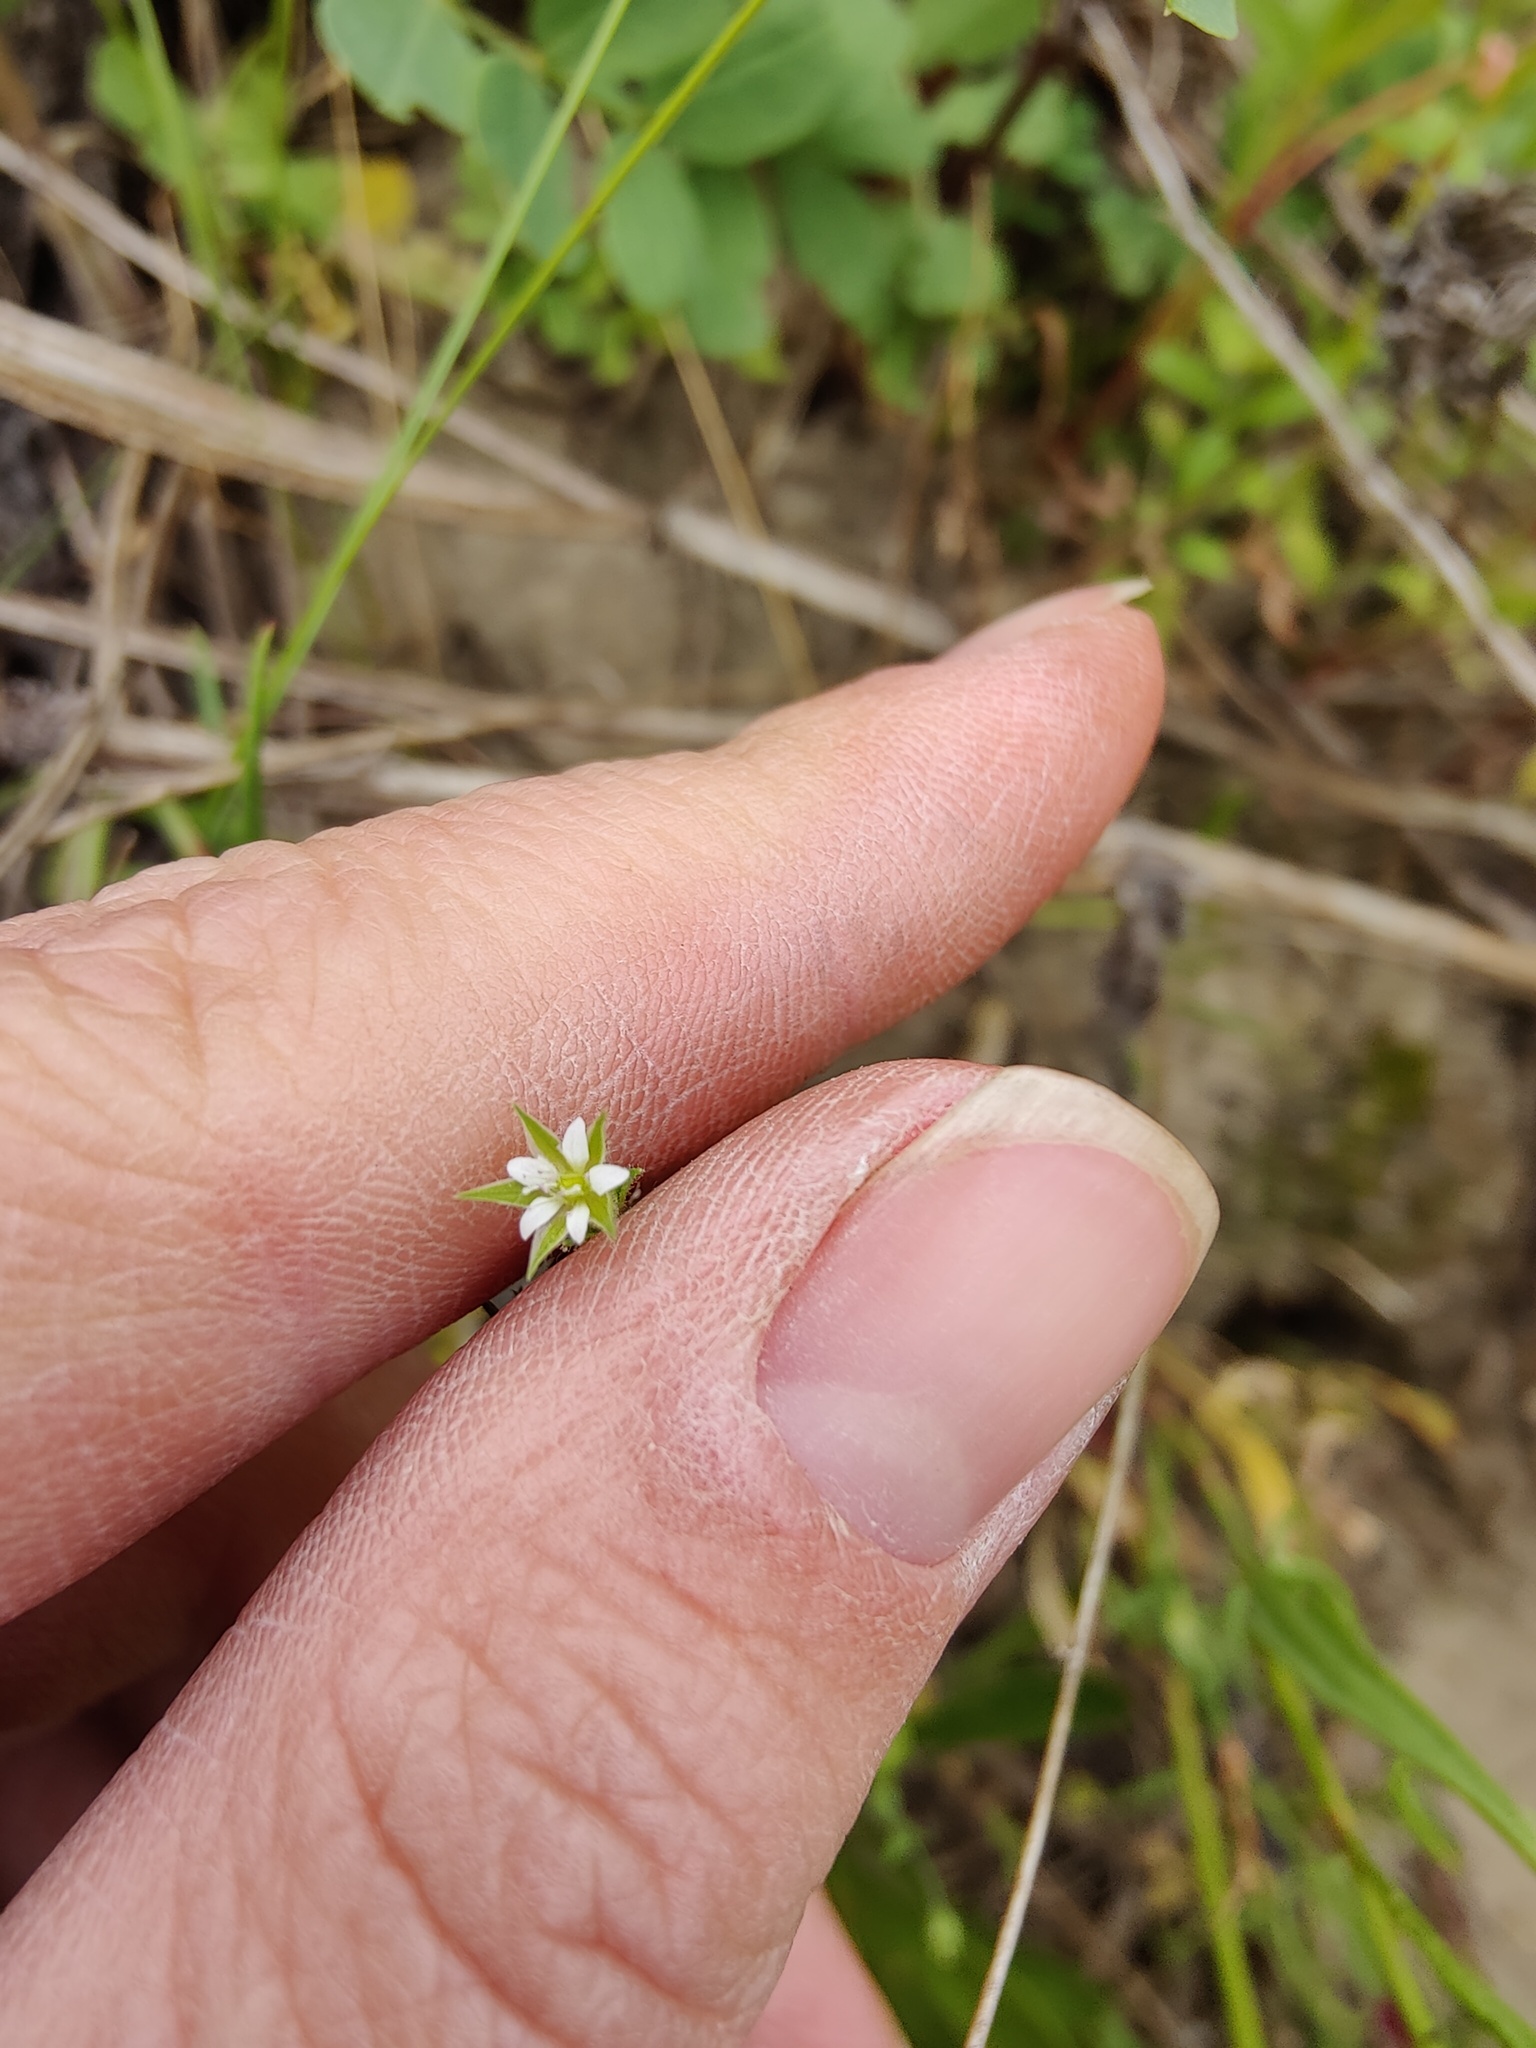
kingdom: Plantae
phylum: Tracheophyta
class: Magnoliopsida
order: Caryophyllales
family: Caryophyllaceae
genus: Arenaria
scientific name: Arenaria serpyllifolia
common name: Thyme-leaved sandwort
